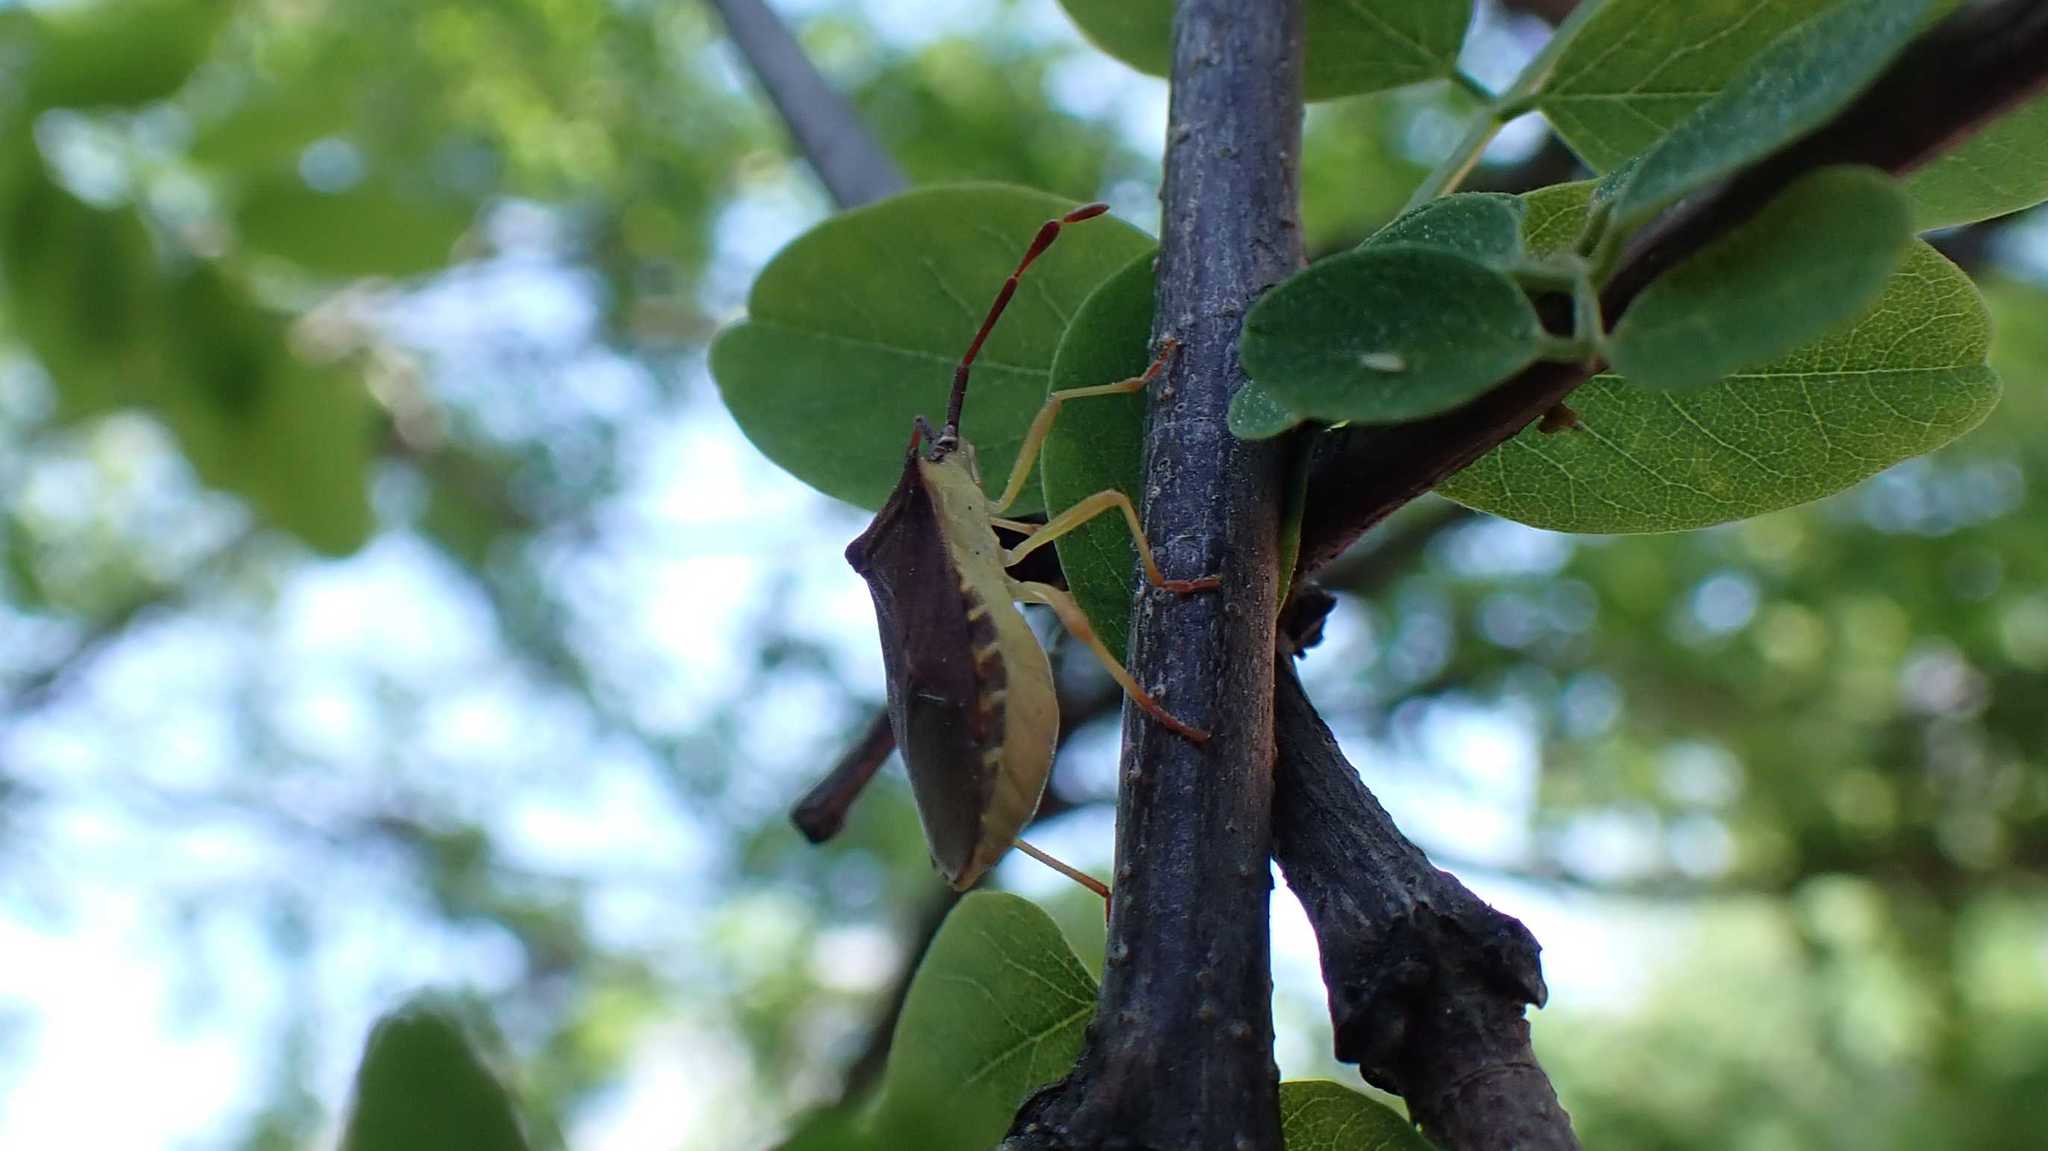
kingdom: Animalia
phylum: Arthropoda
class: Insecta
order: Hemiptera
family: Coreidae
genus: Gonocerus
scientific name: Gonocerus acuteangulatus
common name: Box bug
